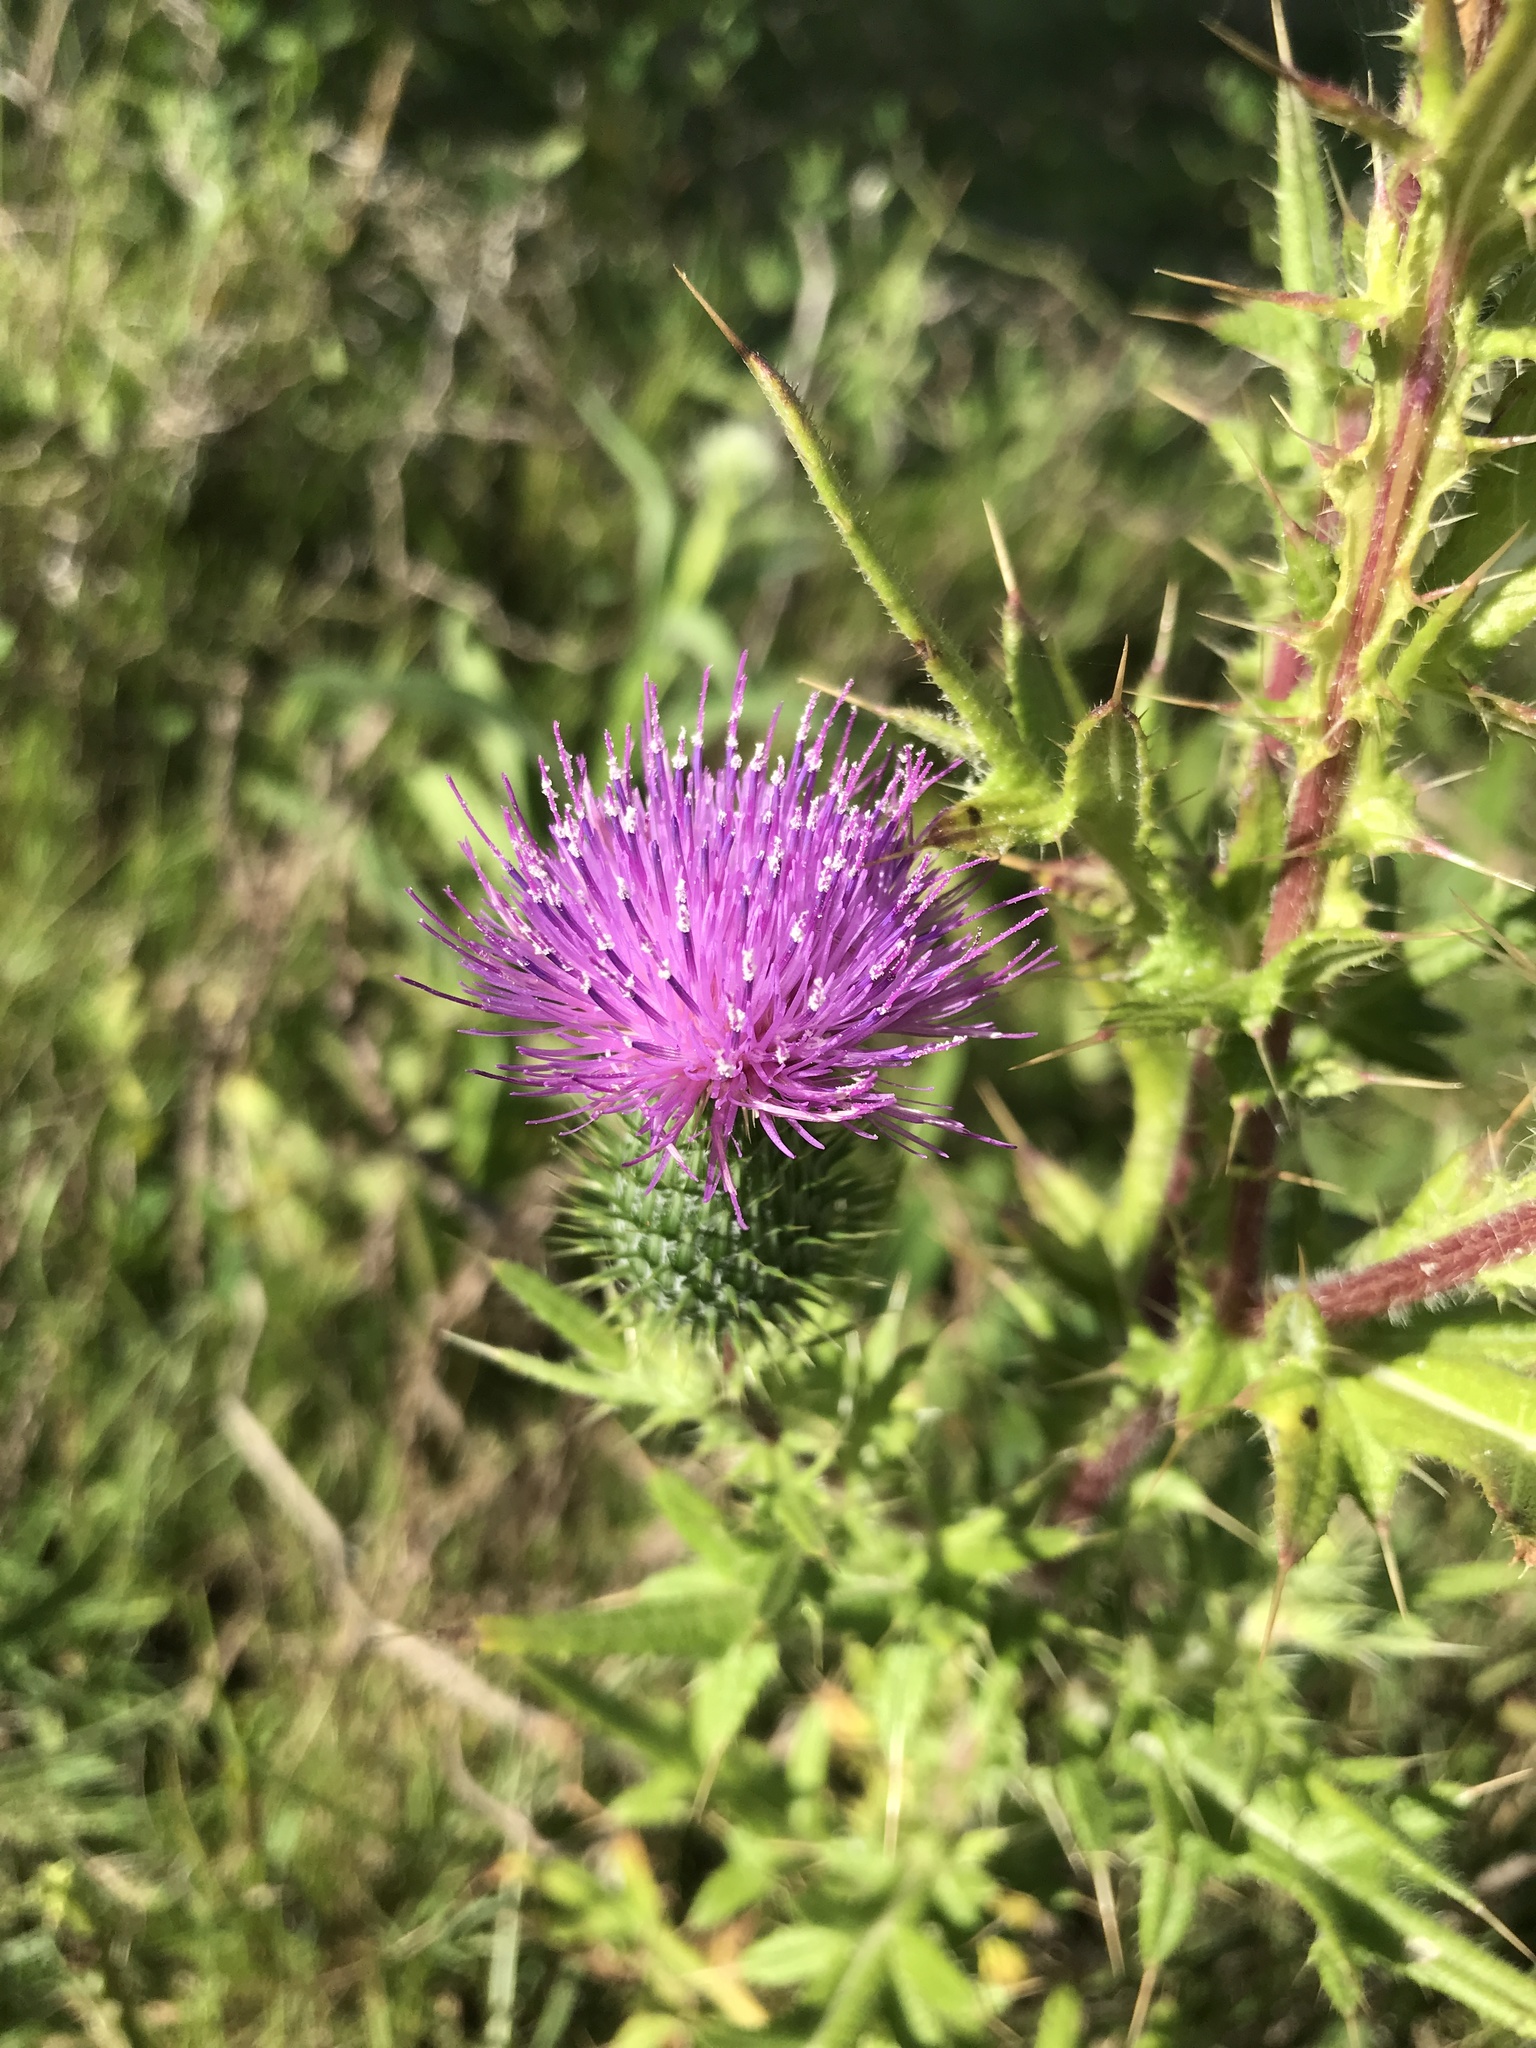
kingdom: Plantae
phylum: Tracheophyta
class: Magnoliopsida
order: Asterales
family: Asteraceae
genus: Cirsium
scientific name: Cirsium vulgare
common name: Bull thistle
